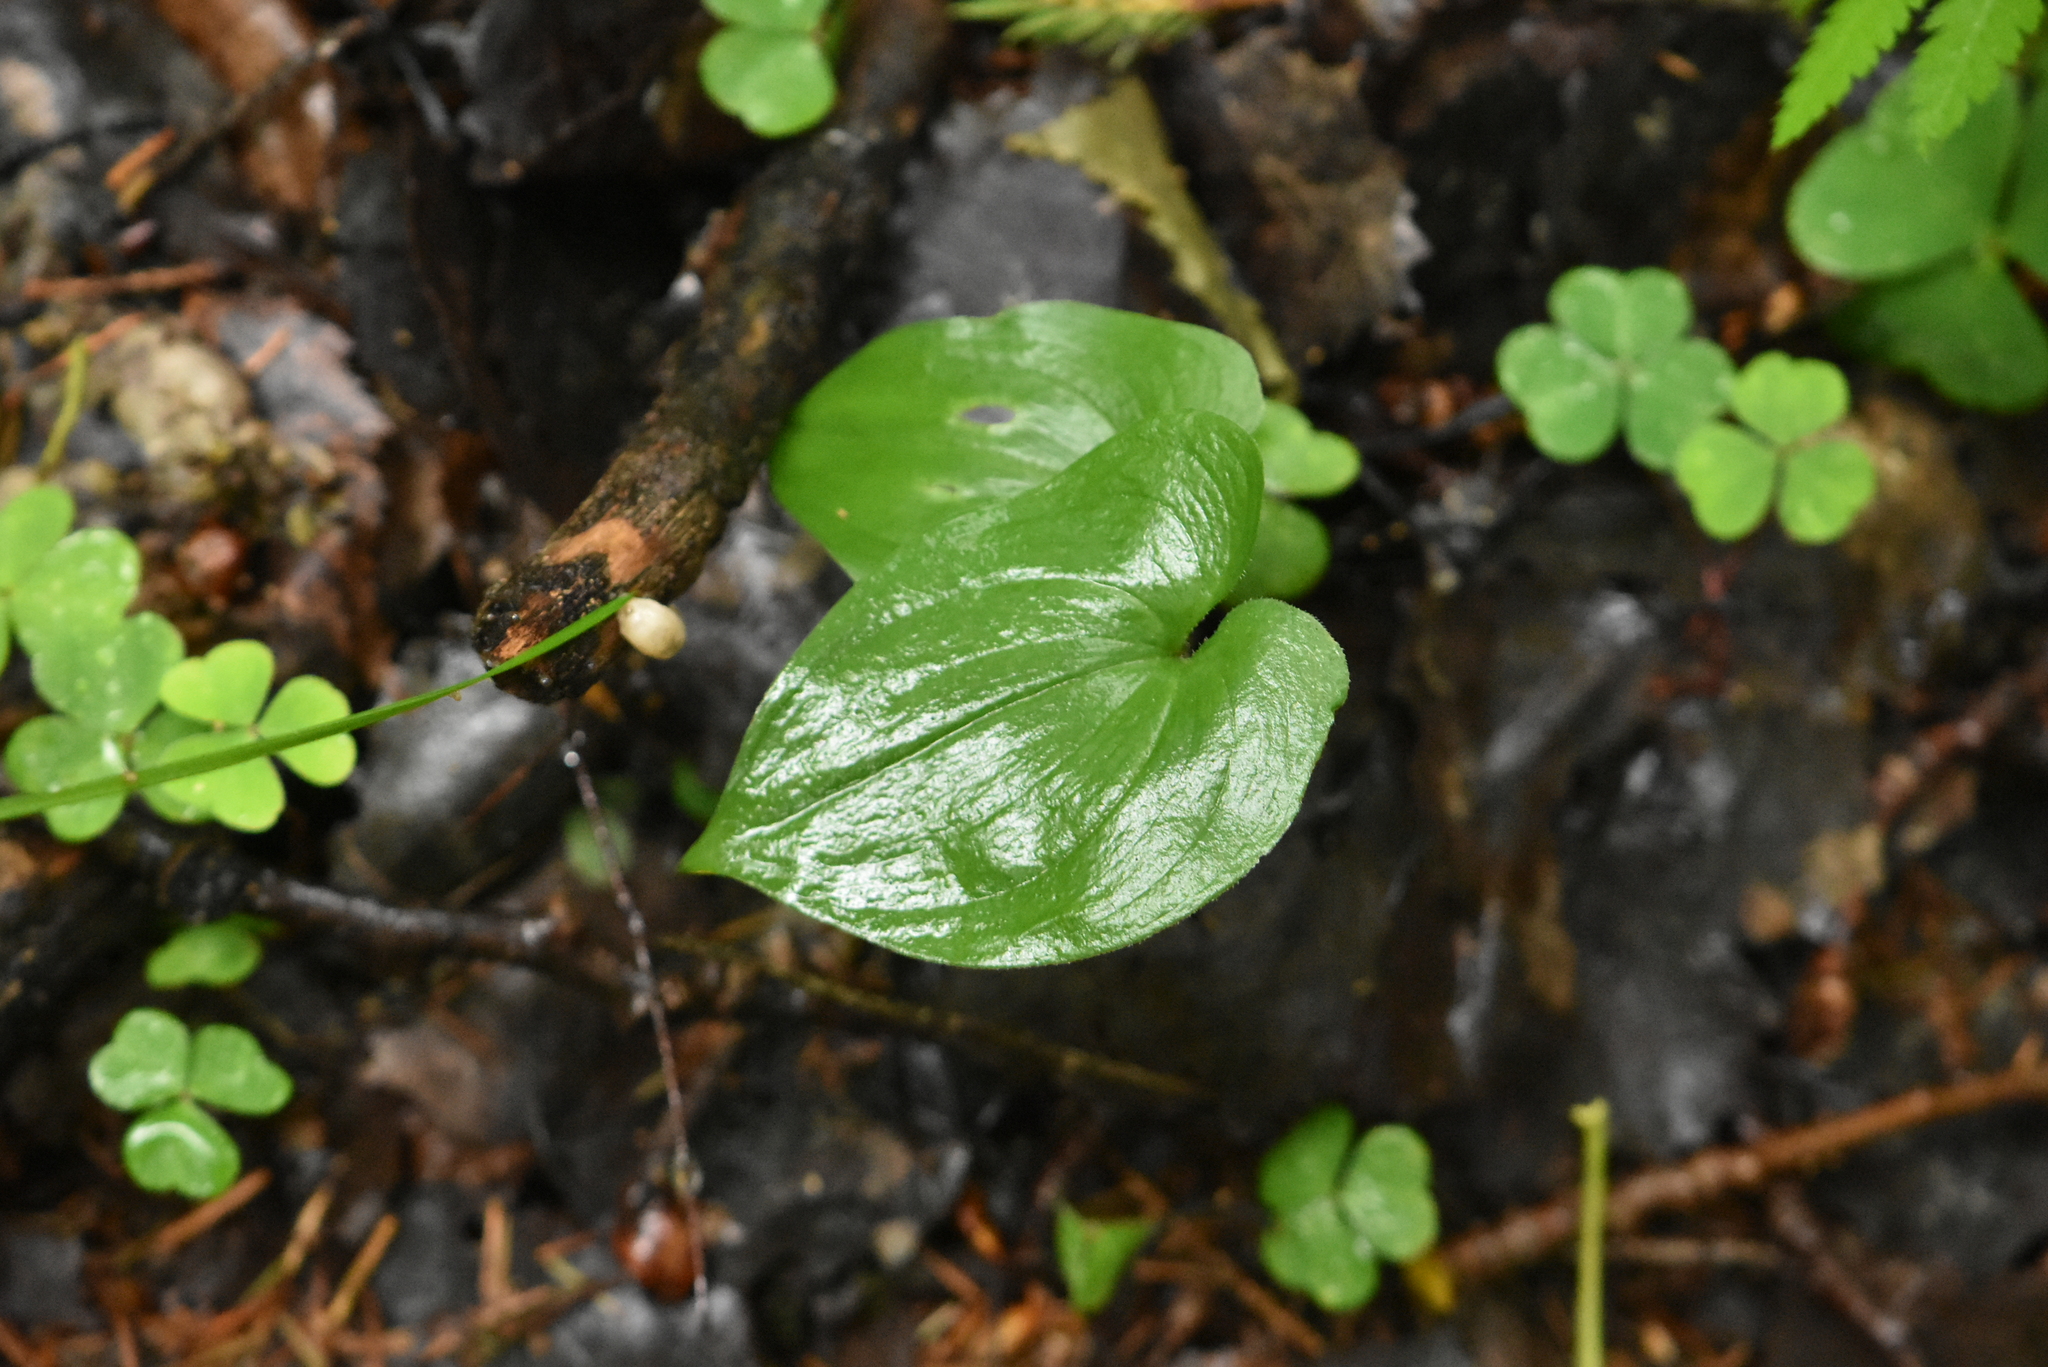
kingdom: Plantae
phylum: Tracheophyta
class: Liliopsida
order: Asparagales
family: Asparagaceae
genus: Maianthemum
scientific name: Maianthemum bifolium
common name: May lily
